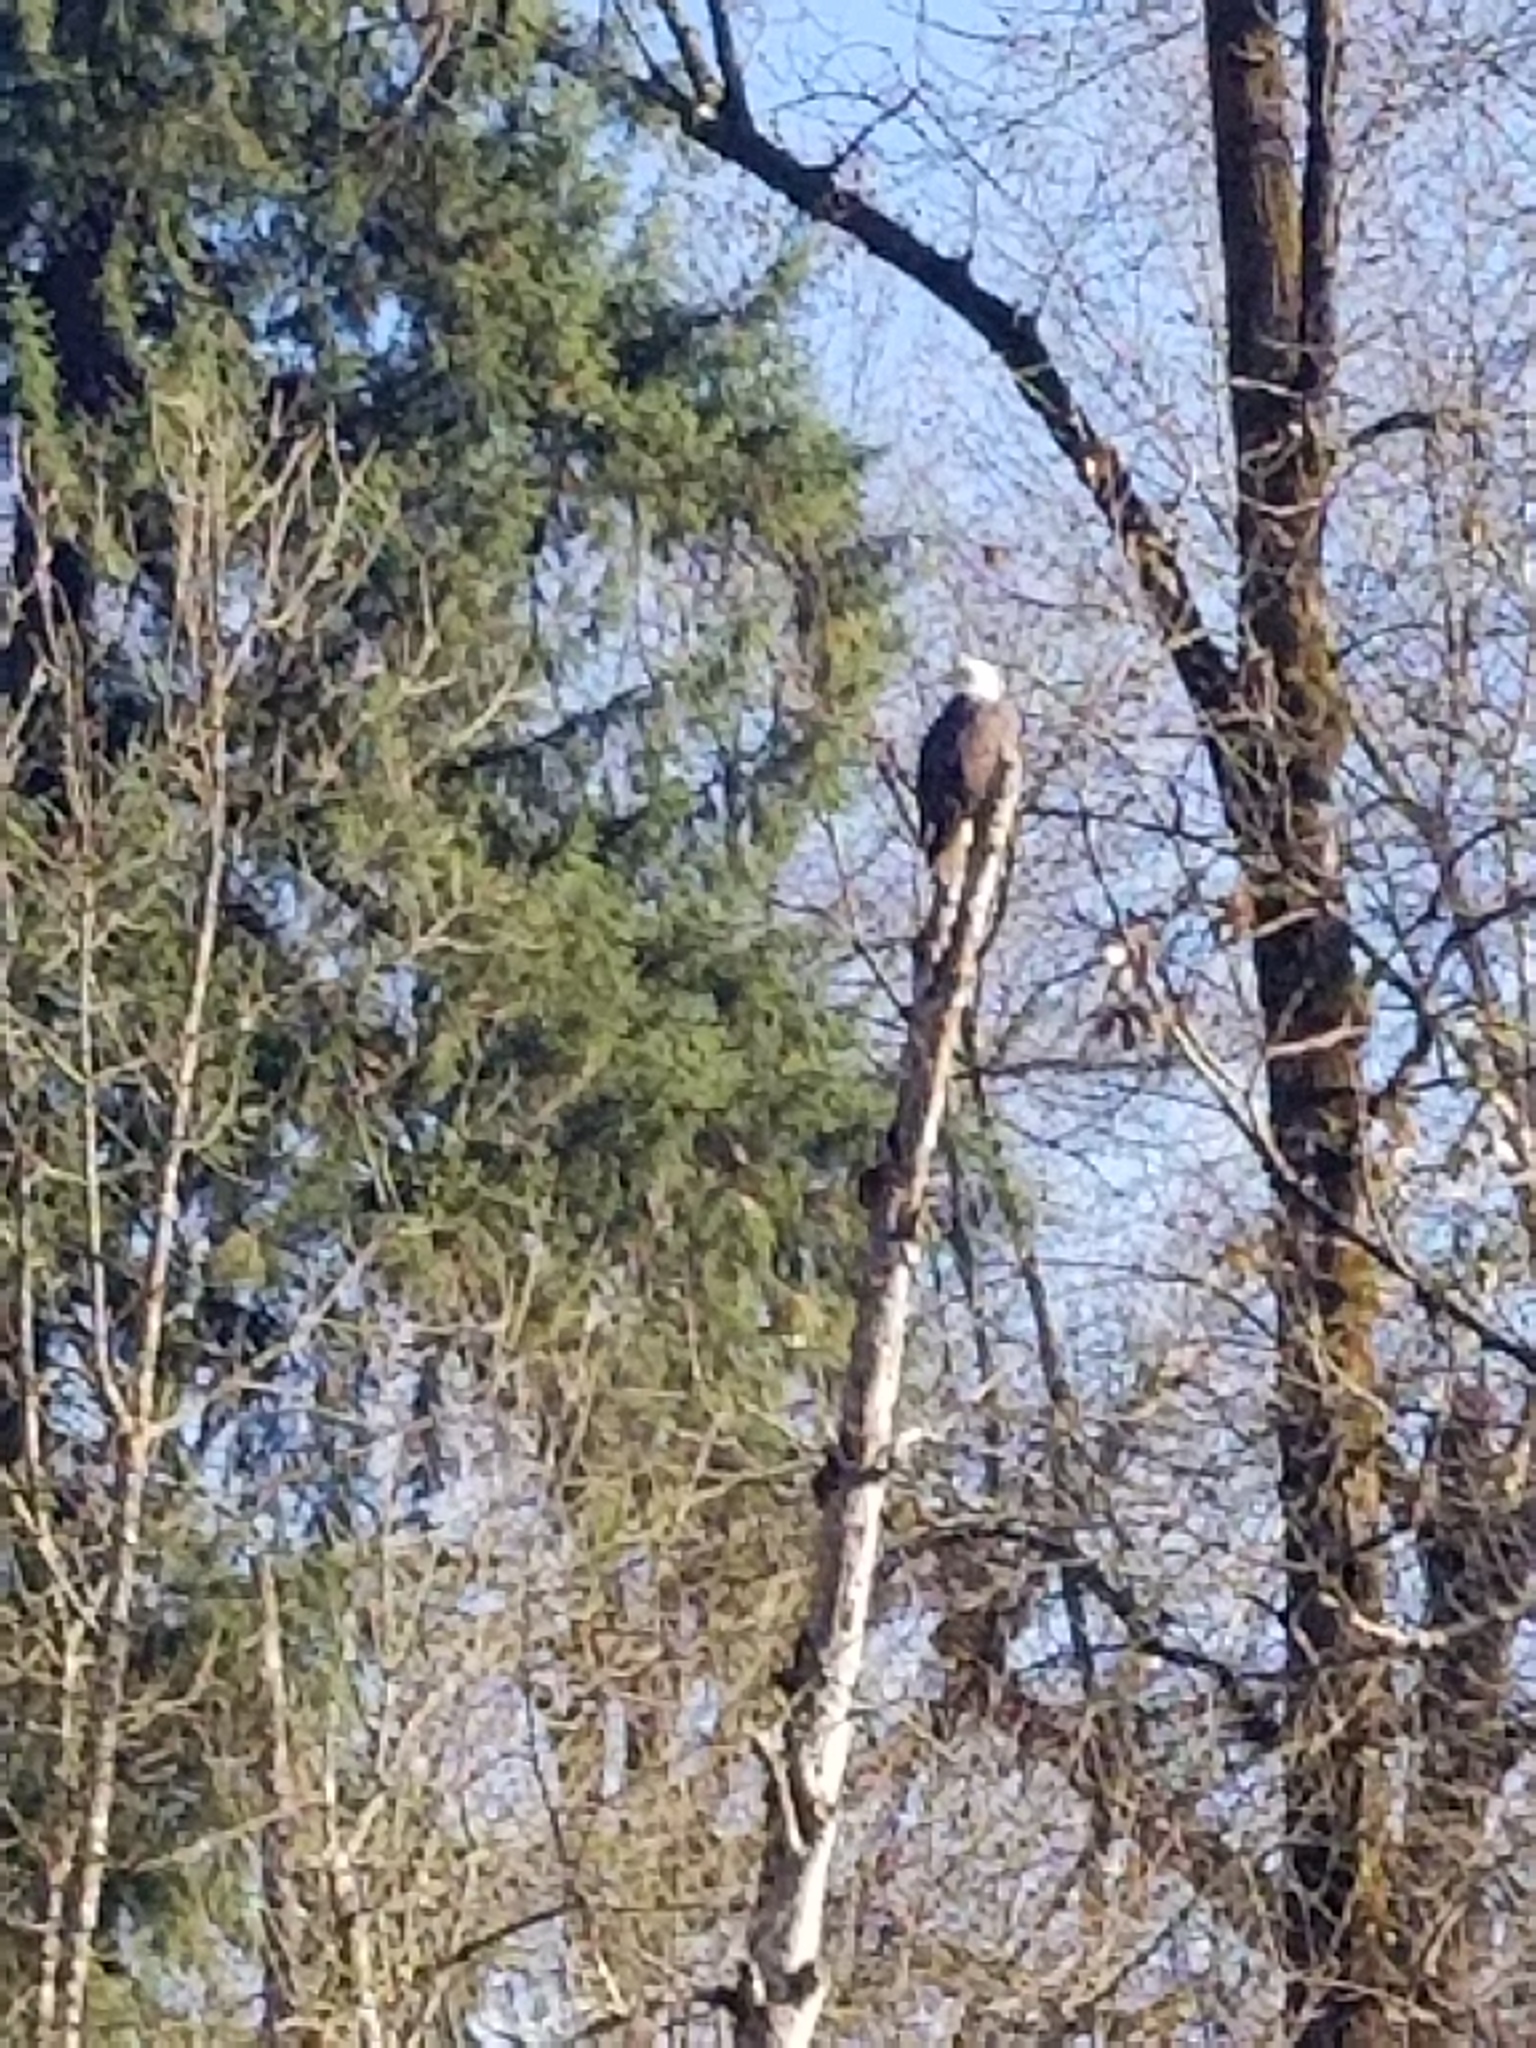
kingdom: Animalia
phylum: Chordata
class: Aves
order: Accipitriformes
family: Accipitridae
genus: Haliaeetus
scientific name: Haliaeetus leucocephalus
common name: Bald eagle
